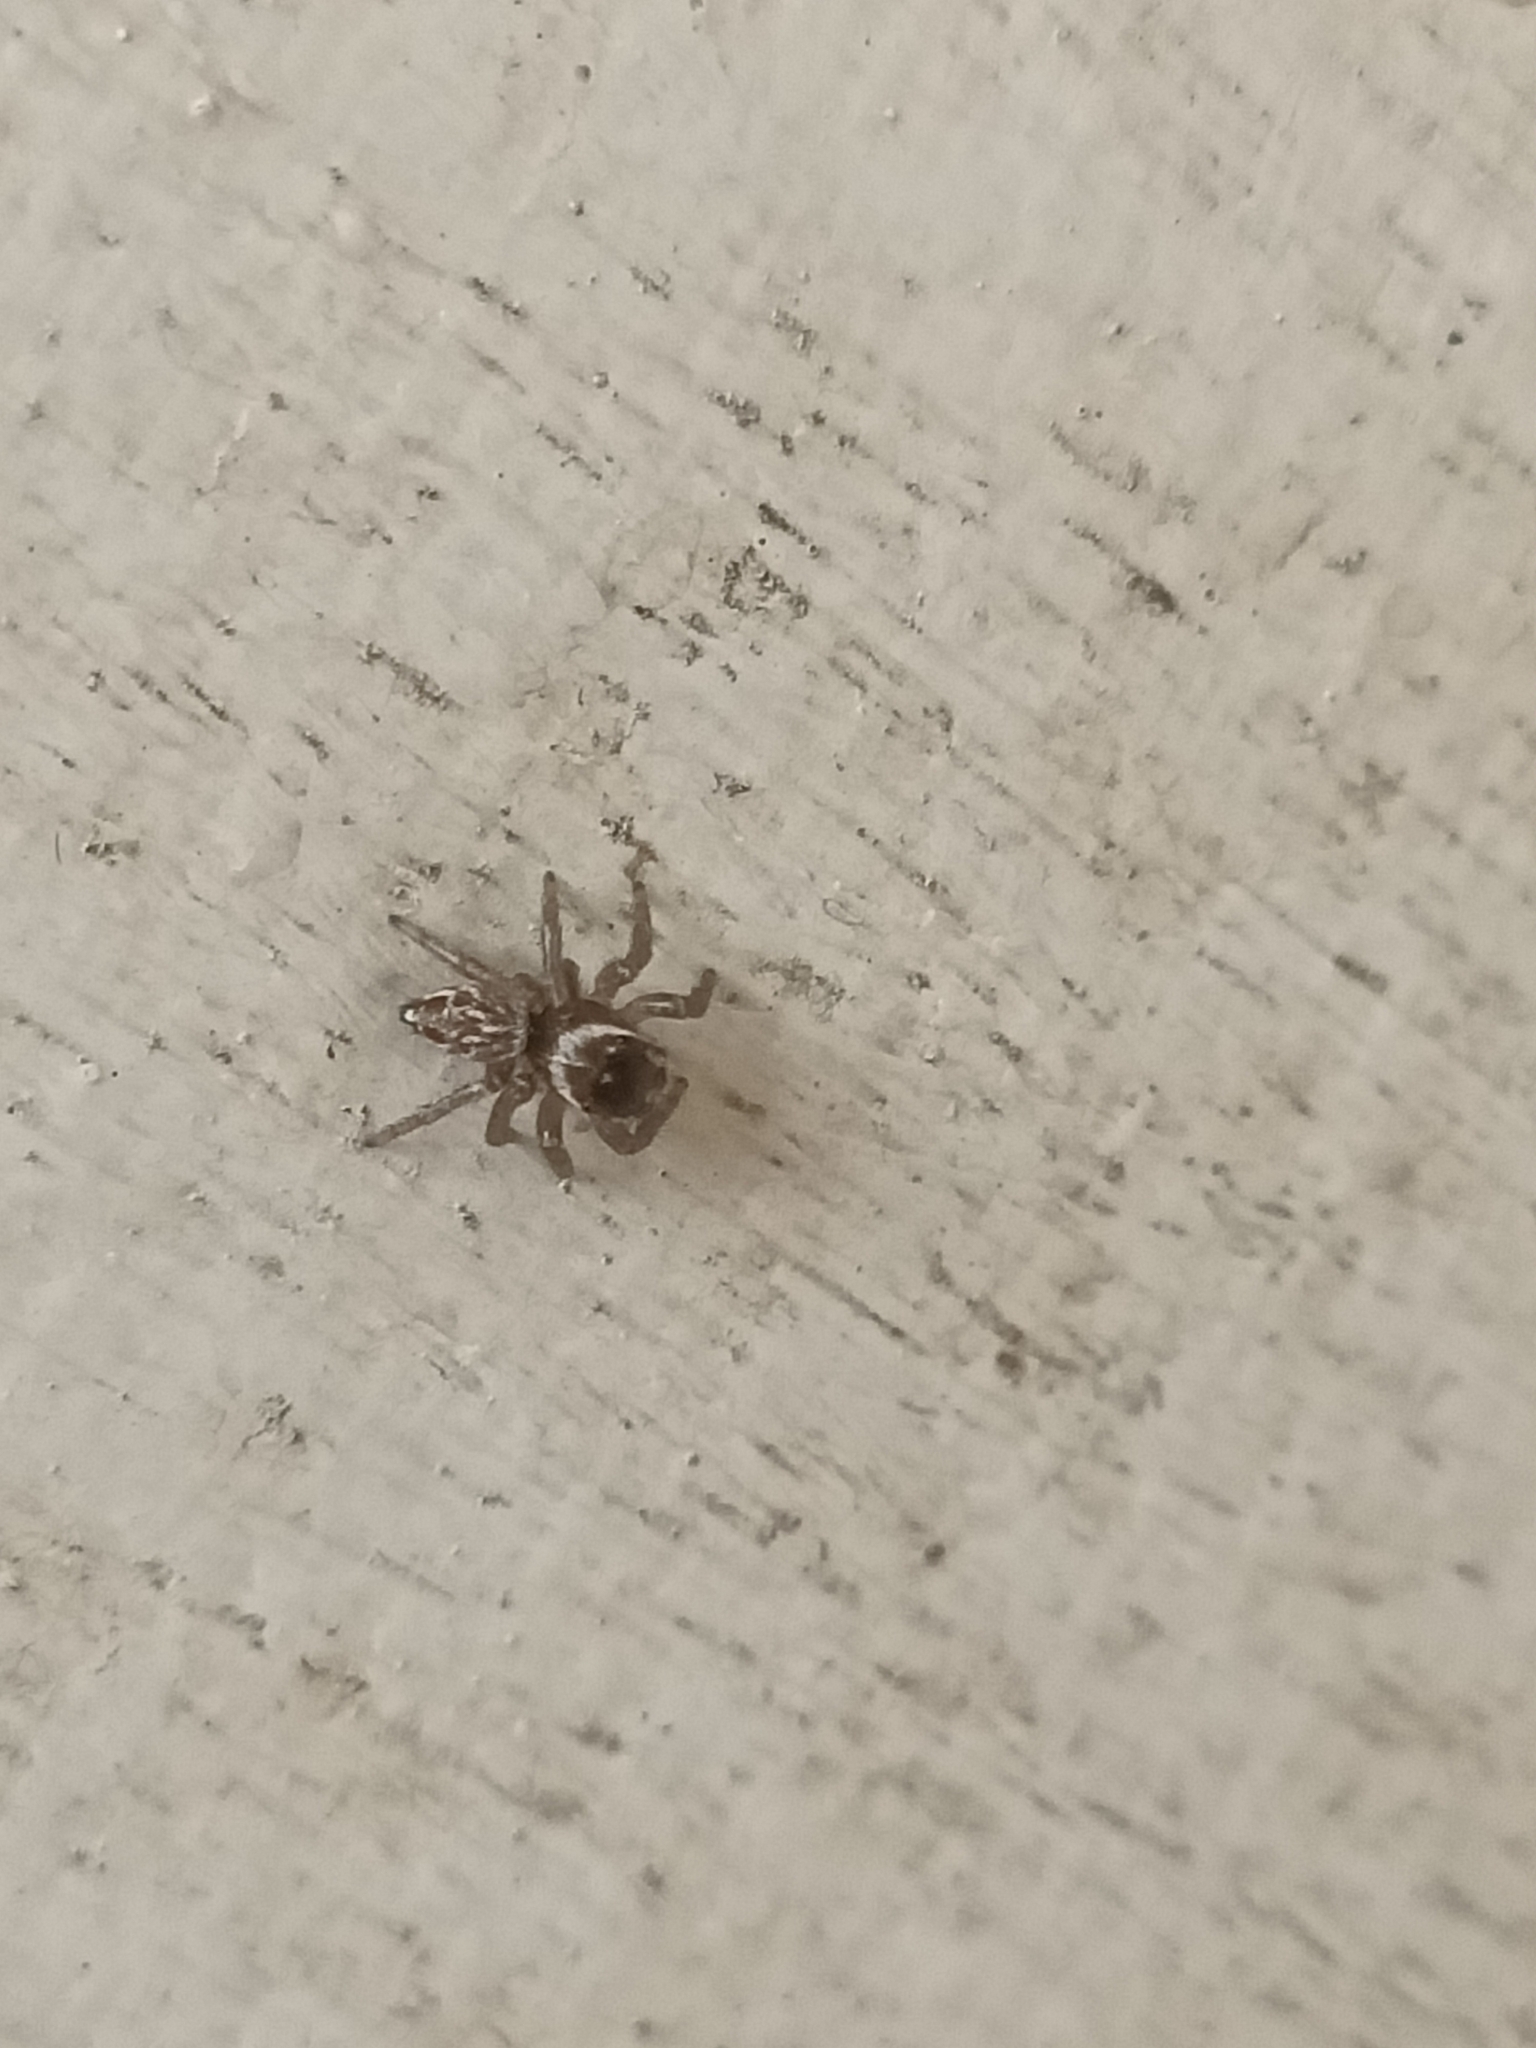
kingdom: Animalia
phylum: Arthropoda
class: Arachnida
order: Araneae
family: Salticidae
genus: Maratus
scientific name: Maratus griseus
